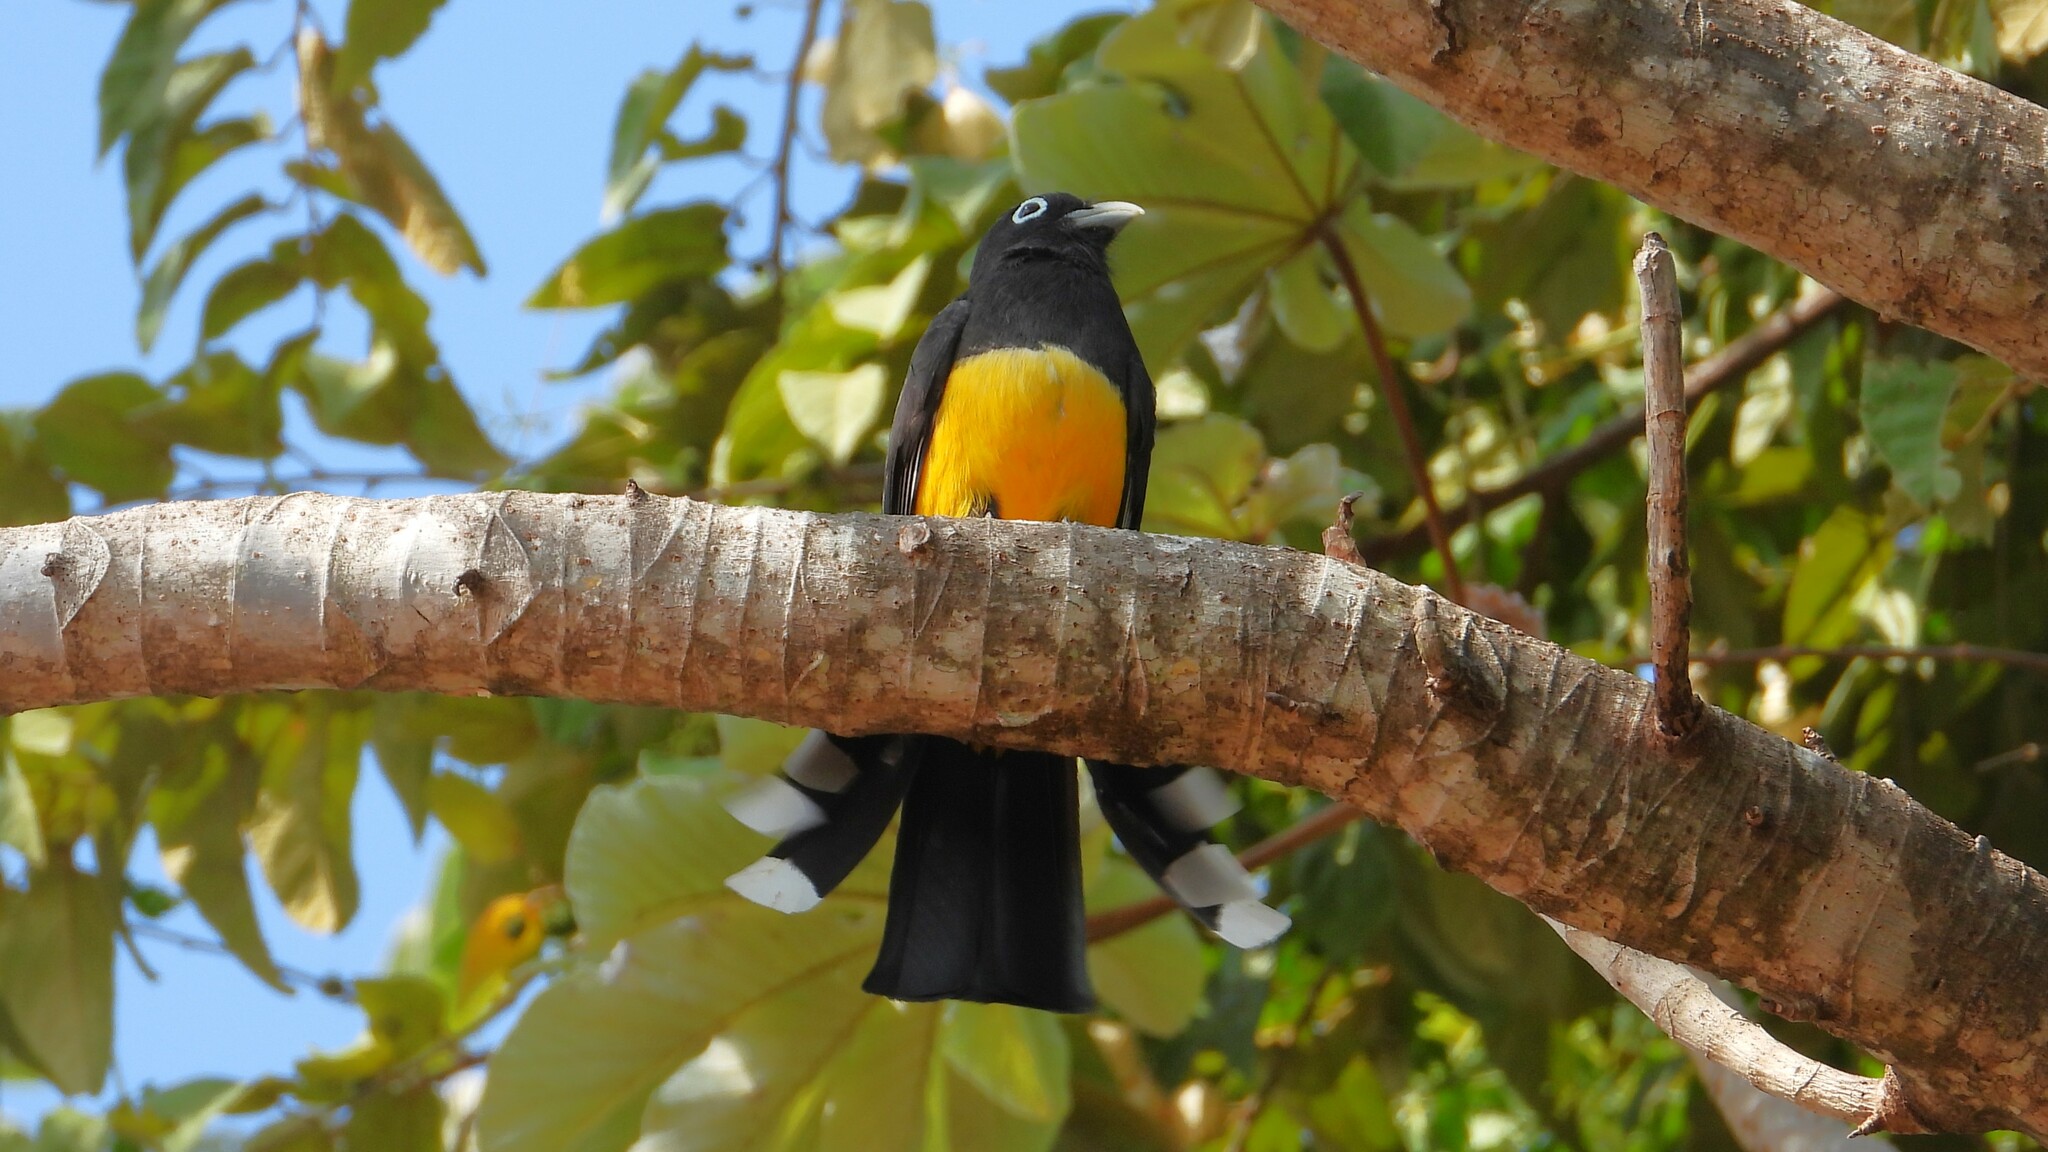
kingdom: Animalia
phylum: Chordata
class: Aves
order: Trogoniformes
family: Trogonidae
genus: Trogon
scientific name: Trogon melanocephalus
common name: Black-headed trogon
